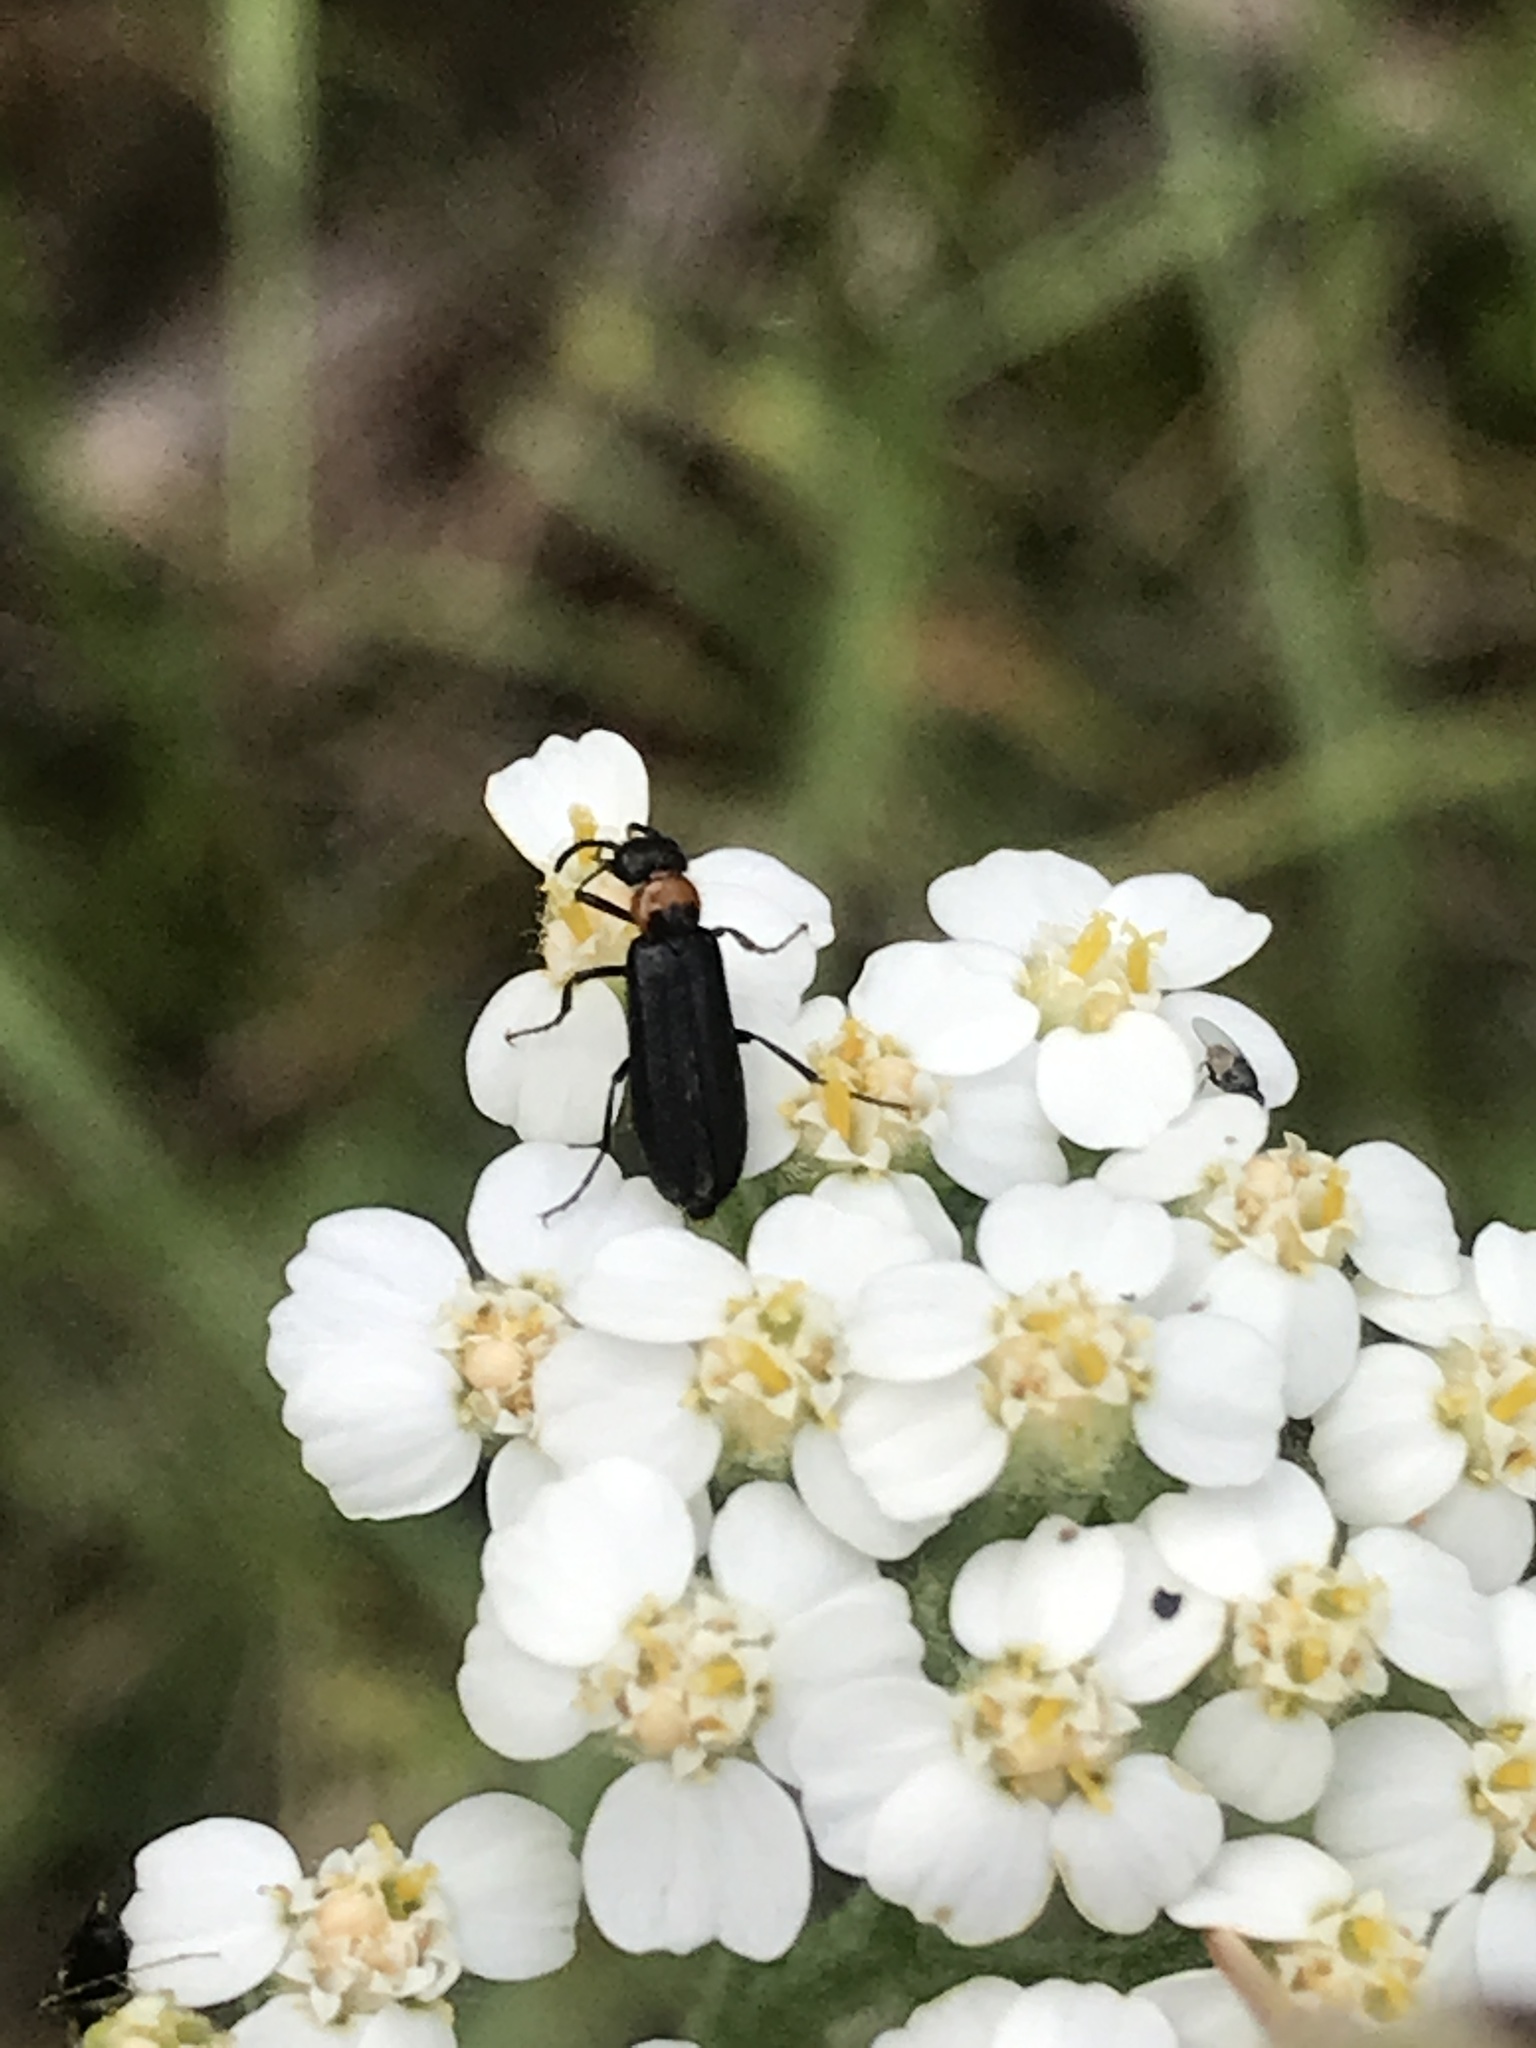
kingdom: Animalia
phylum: Arthropoda
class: Insecta
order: Coleoptera
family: Meloidae
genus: Nemognatha
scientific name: Nemognatha nemorensis
